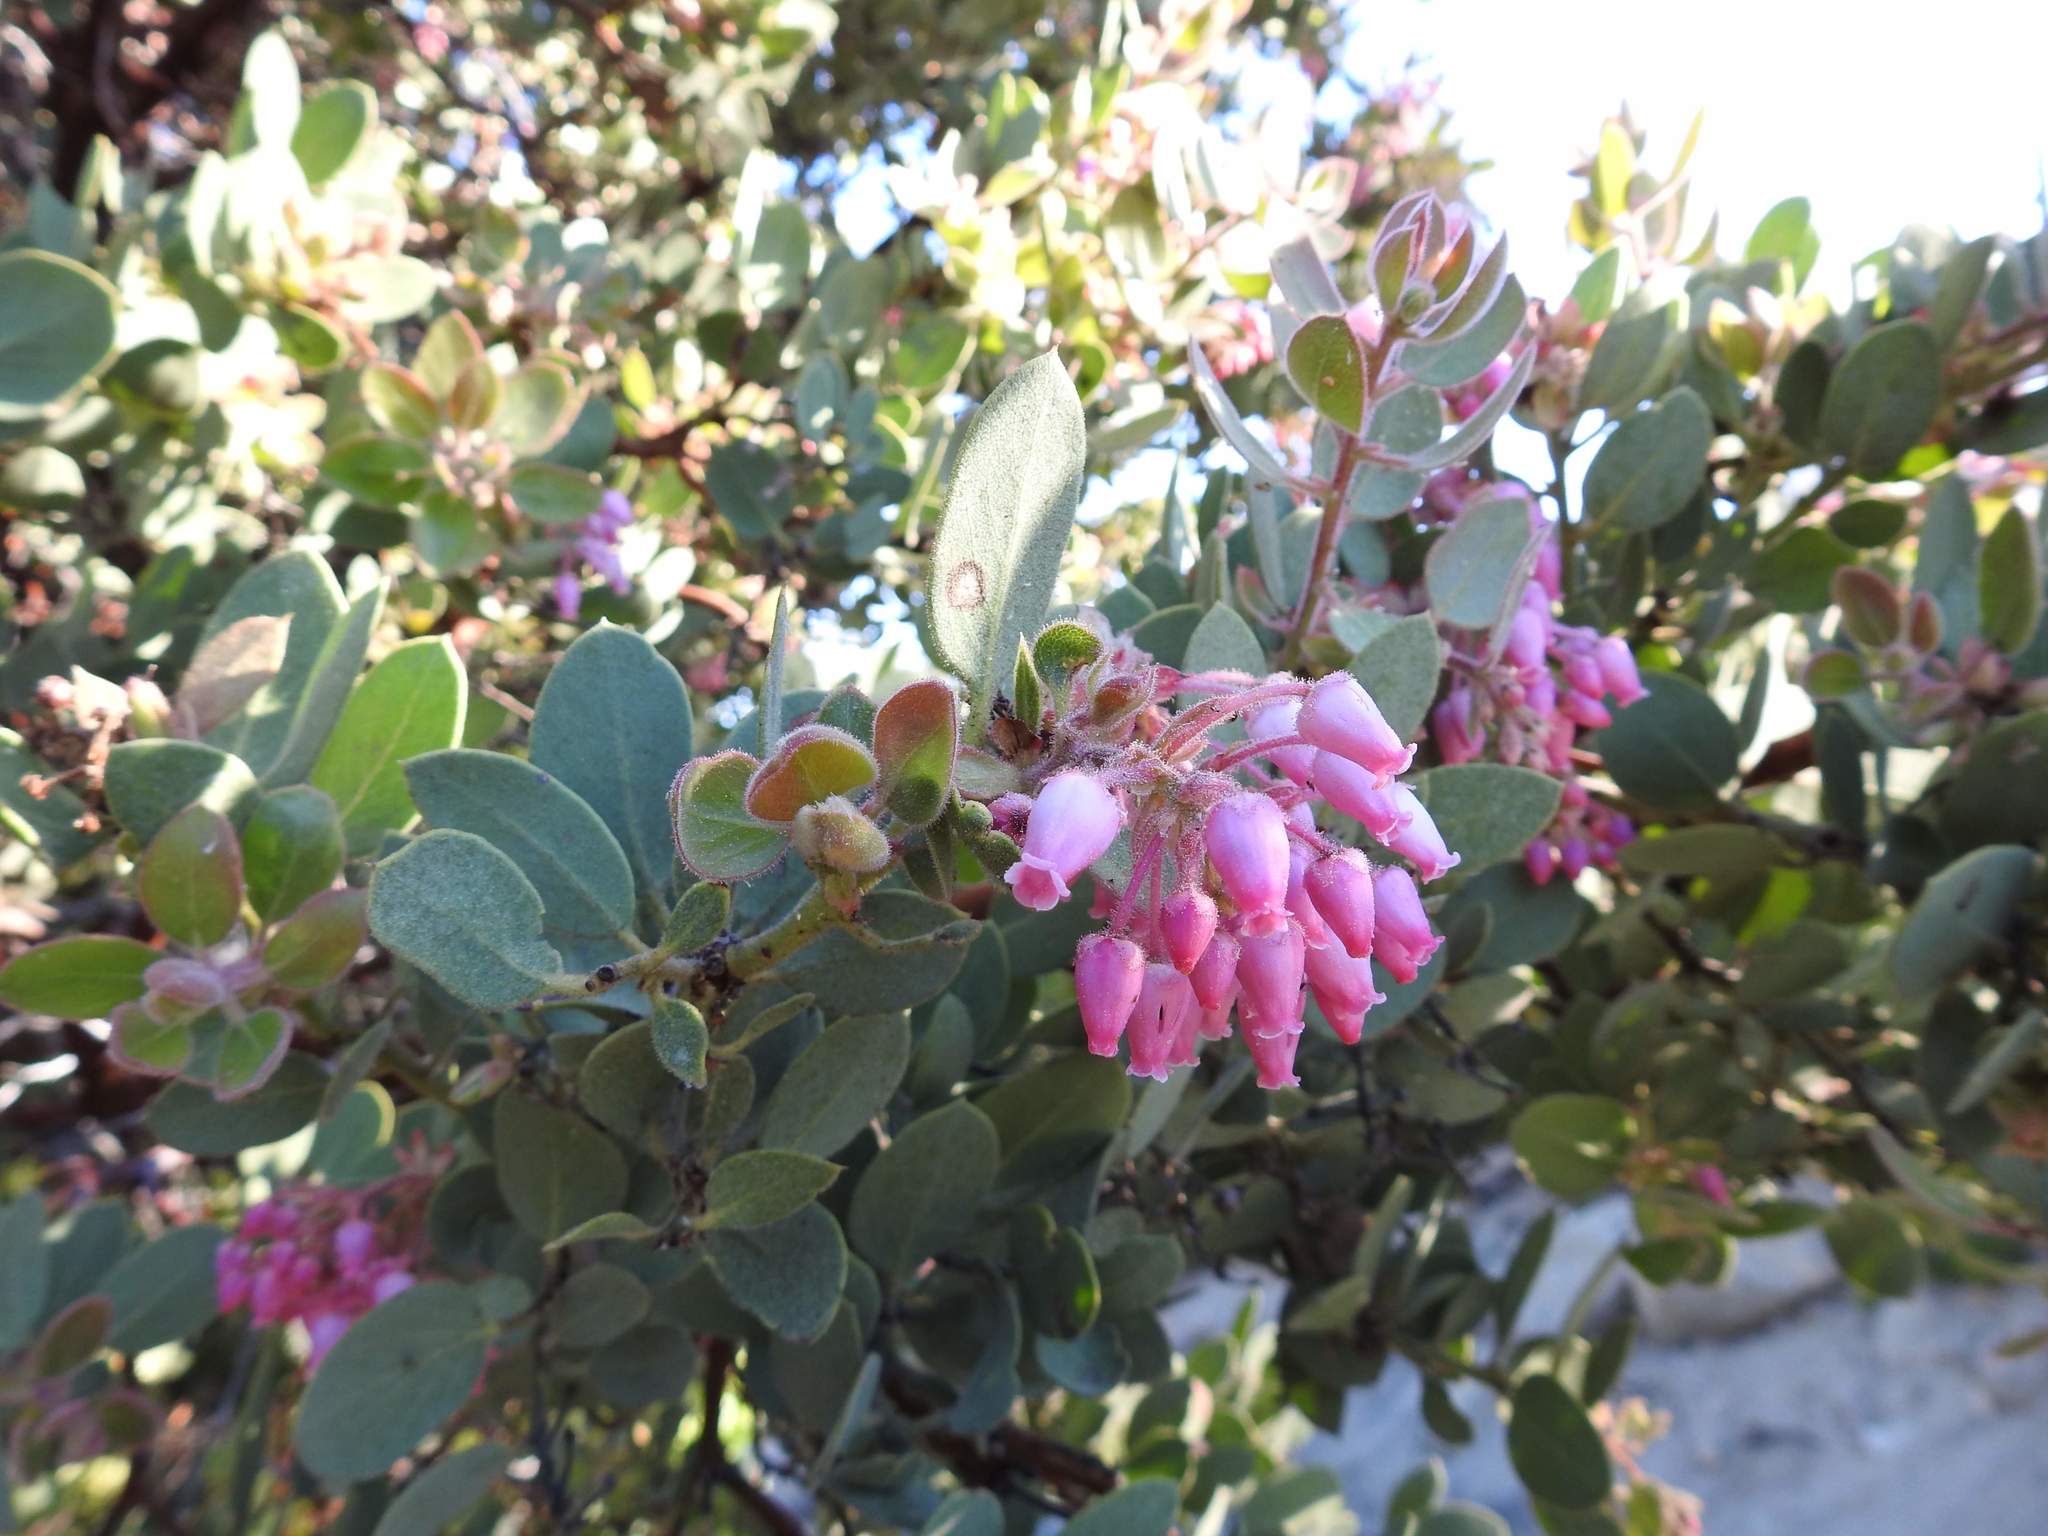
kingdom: Plantae
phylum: Tracheophyta
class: Magnoliopsida
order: Ericales
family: Ericaceae
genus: Arctostaphylos
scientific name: Arctostaphylos pringlei
